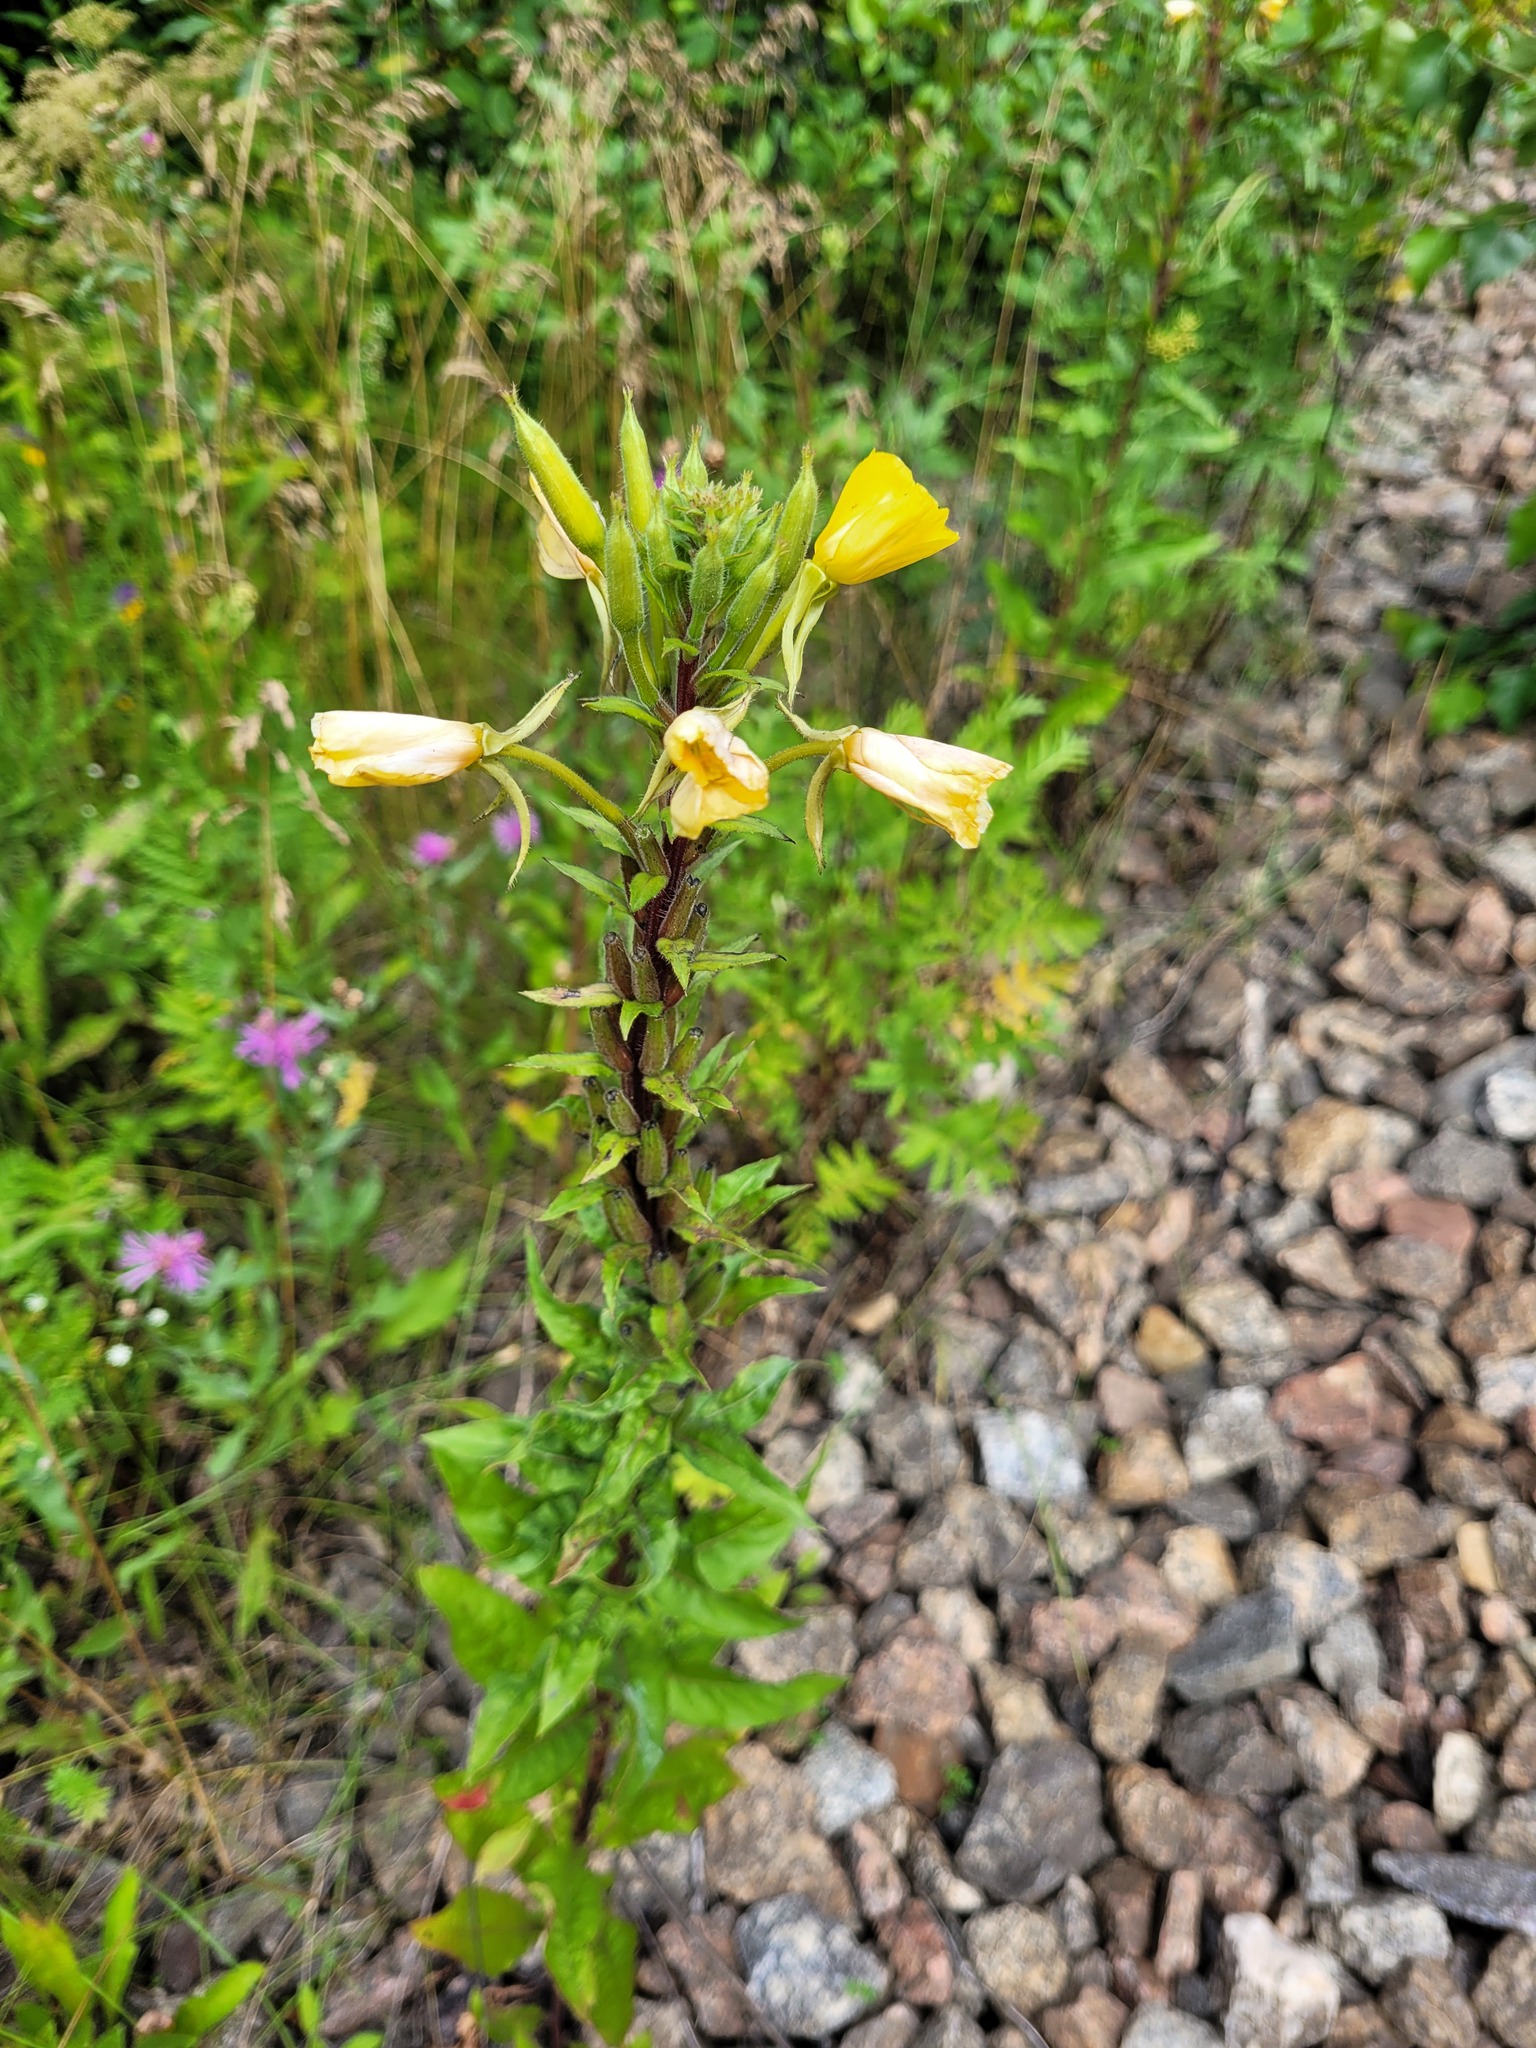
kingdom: Plantae
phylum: Tracheophyta
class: Magnoliopsida
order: Myrtales
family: Onagraceae
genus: Oenothera
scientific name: Oenothera rubricaulis
